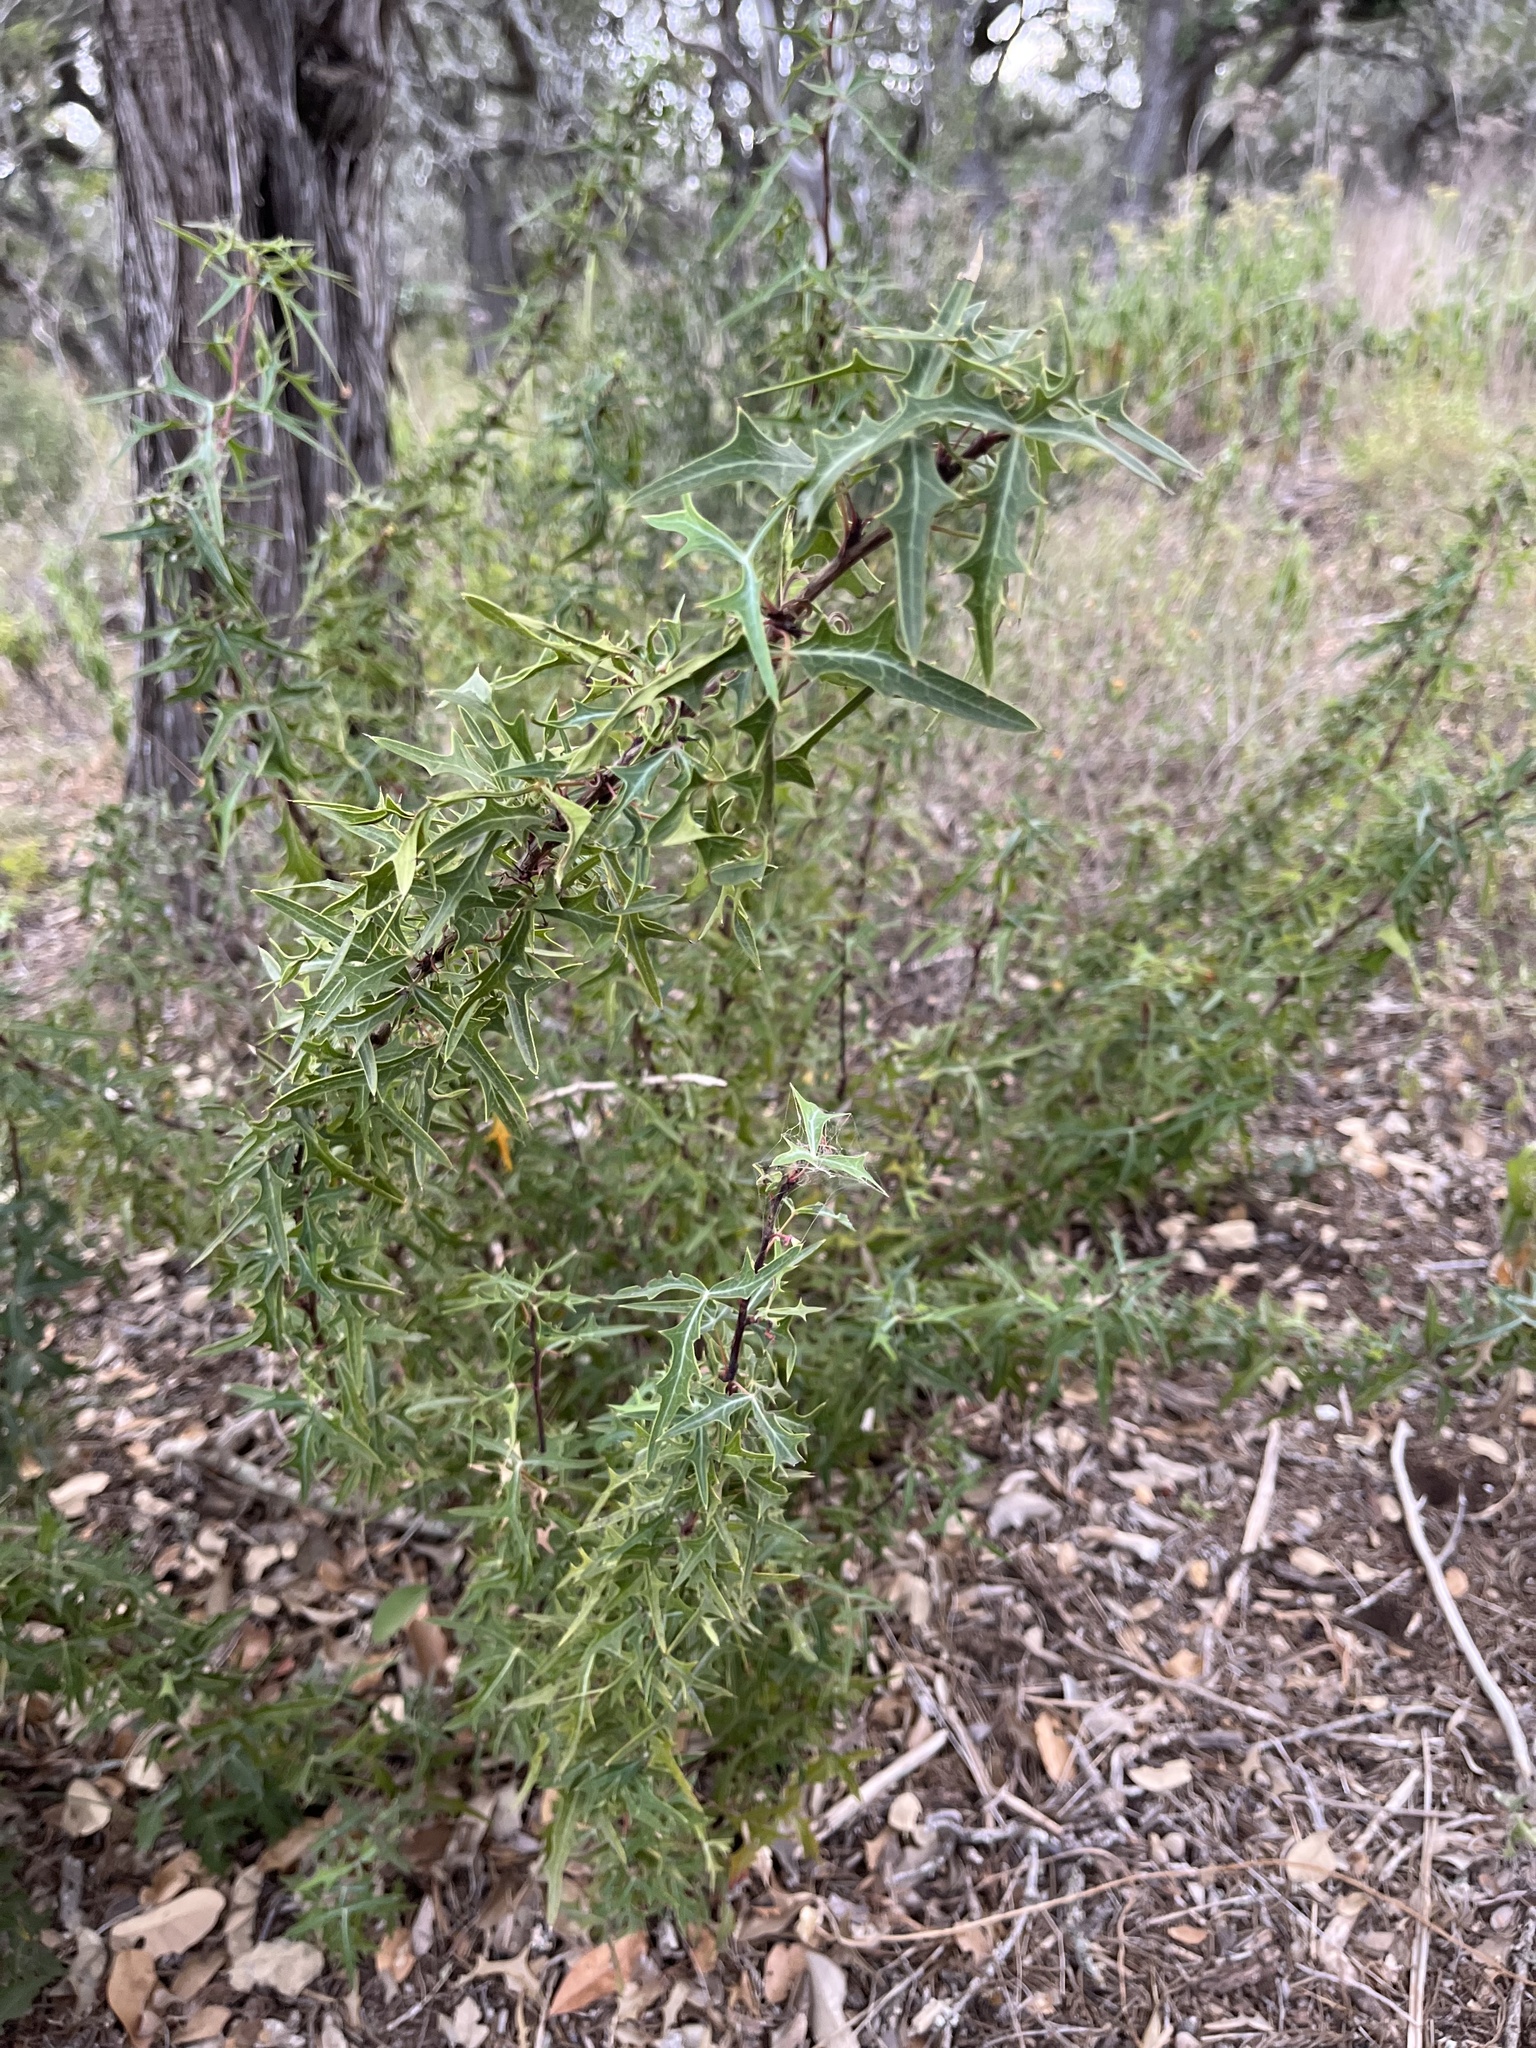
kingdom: Plantae
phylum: Tracheophyta
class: Magnoliopsida
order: Ranunculales
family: Berberidaceae
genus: Alloberberis
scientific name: Alloberberis trifoliolata
